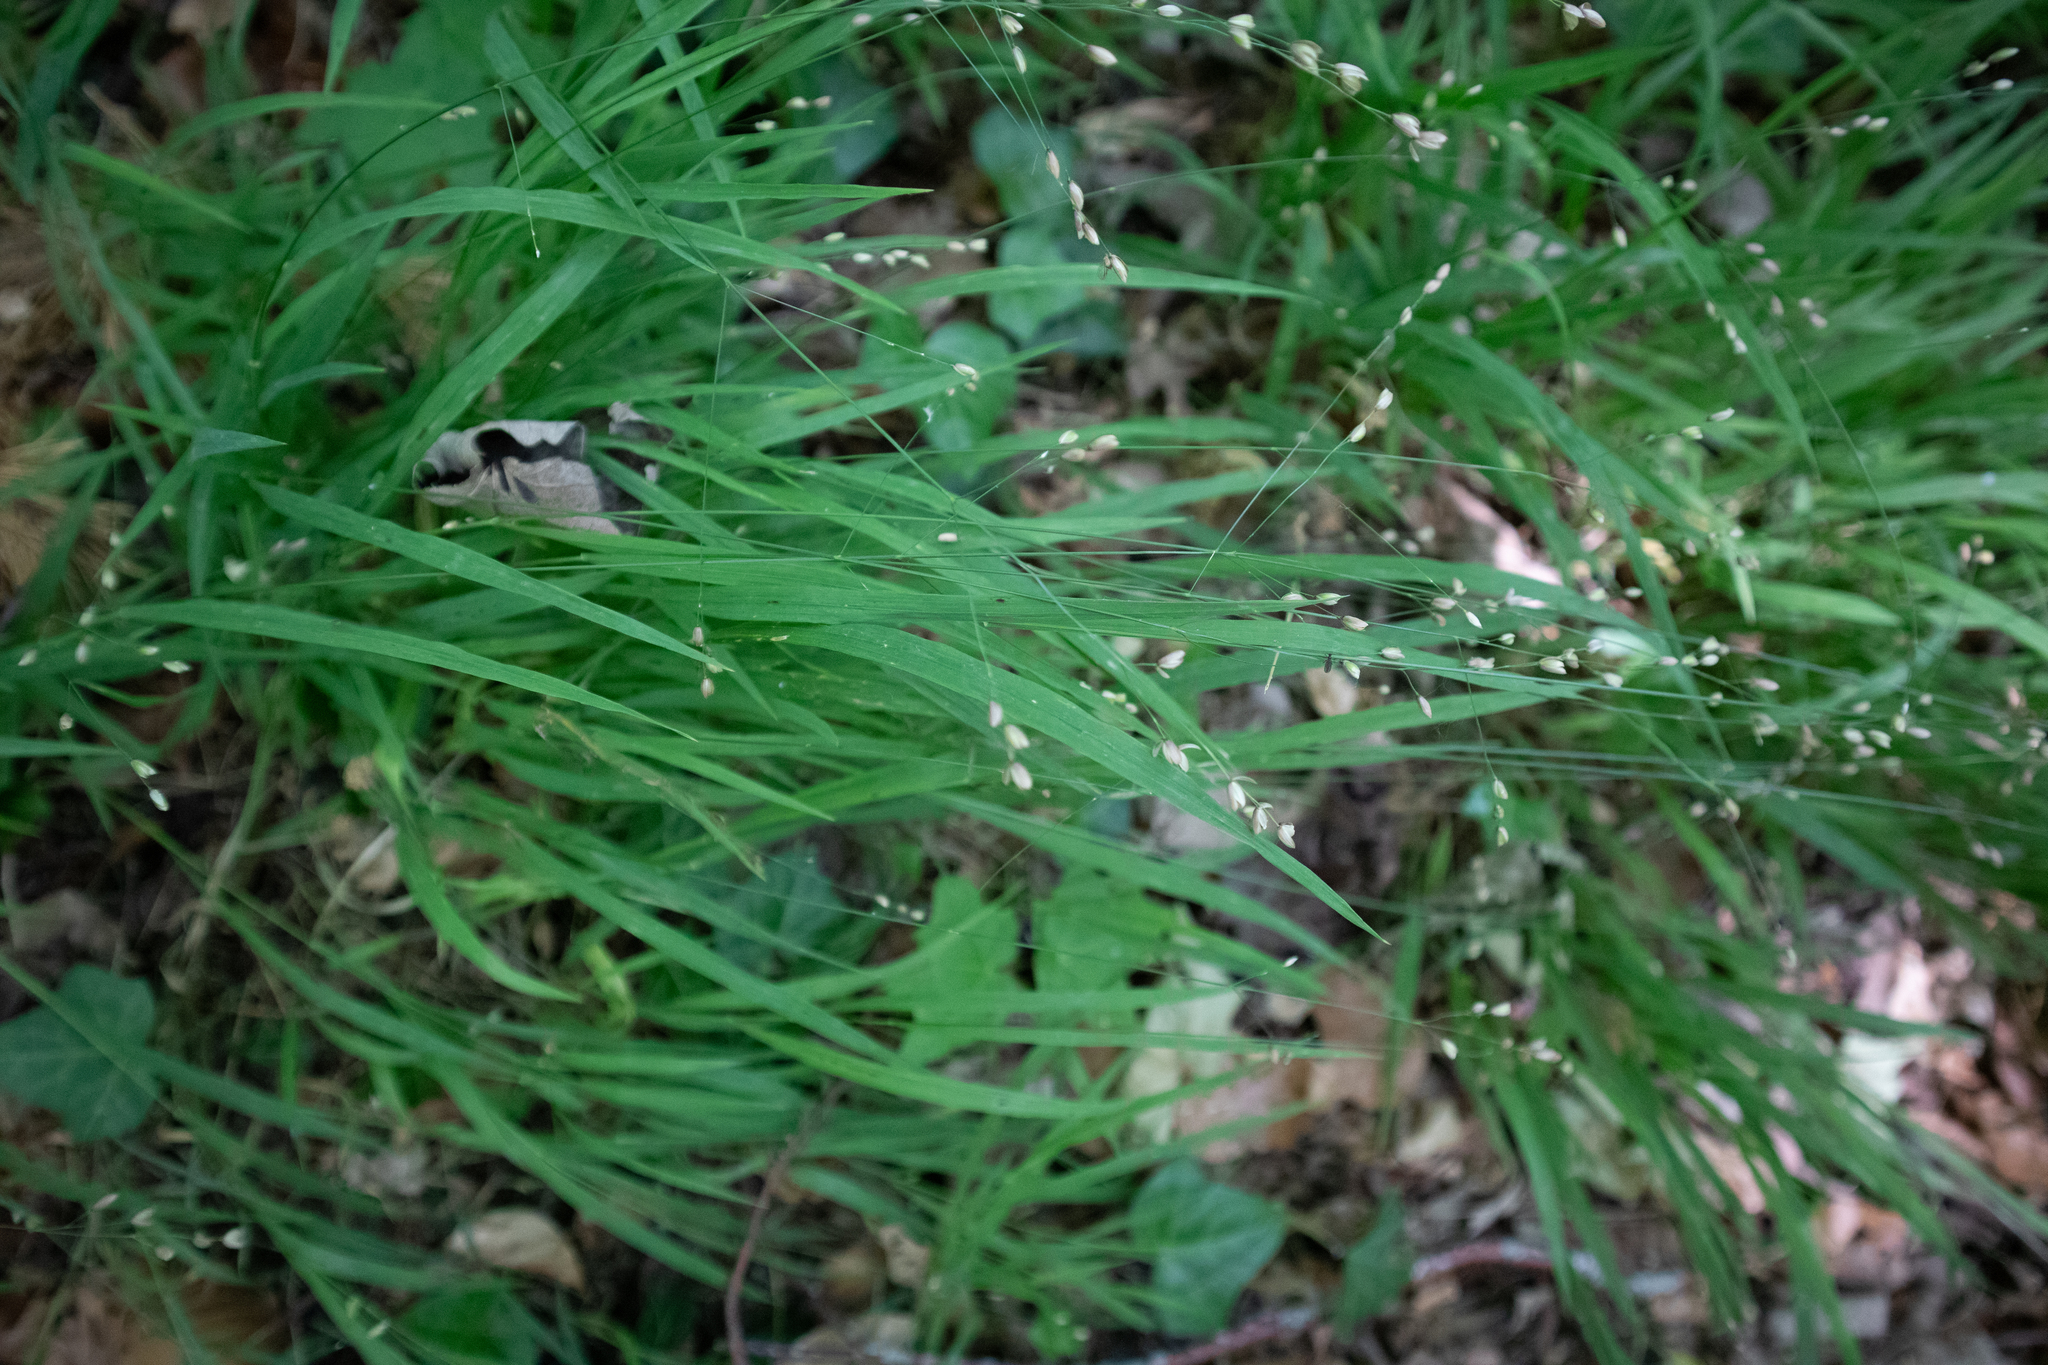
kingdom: Plantae
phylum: Tracheophyta
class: Liliopsida
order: Poales
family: Poaceae
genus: Melica
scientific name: Melica uniflora
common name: Wood melick
